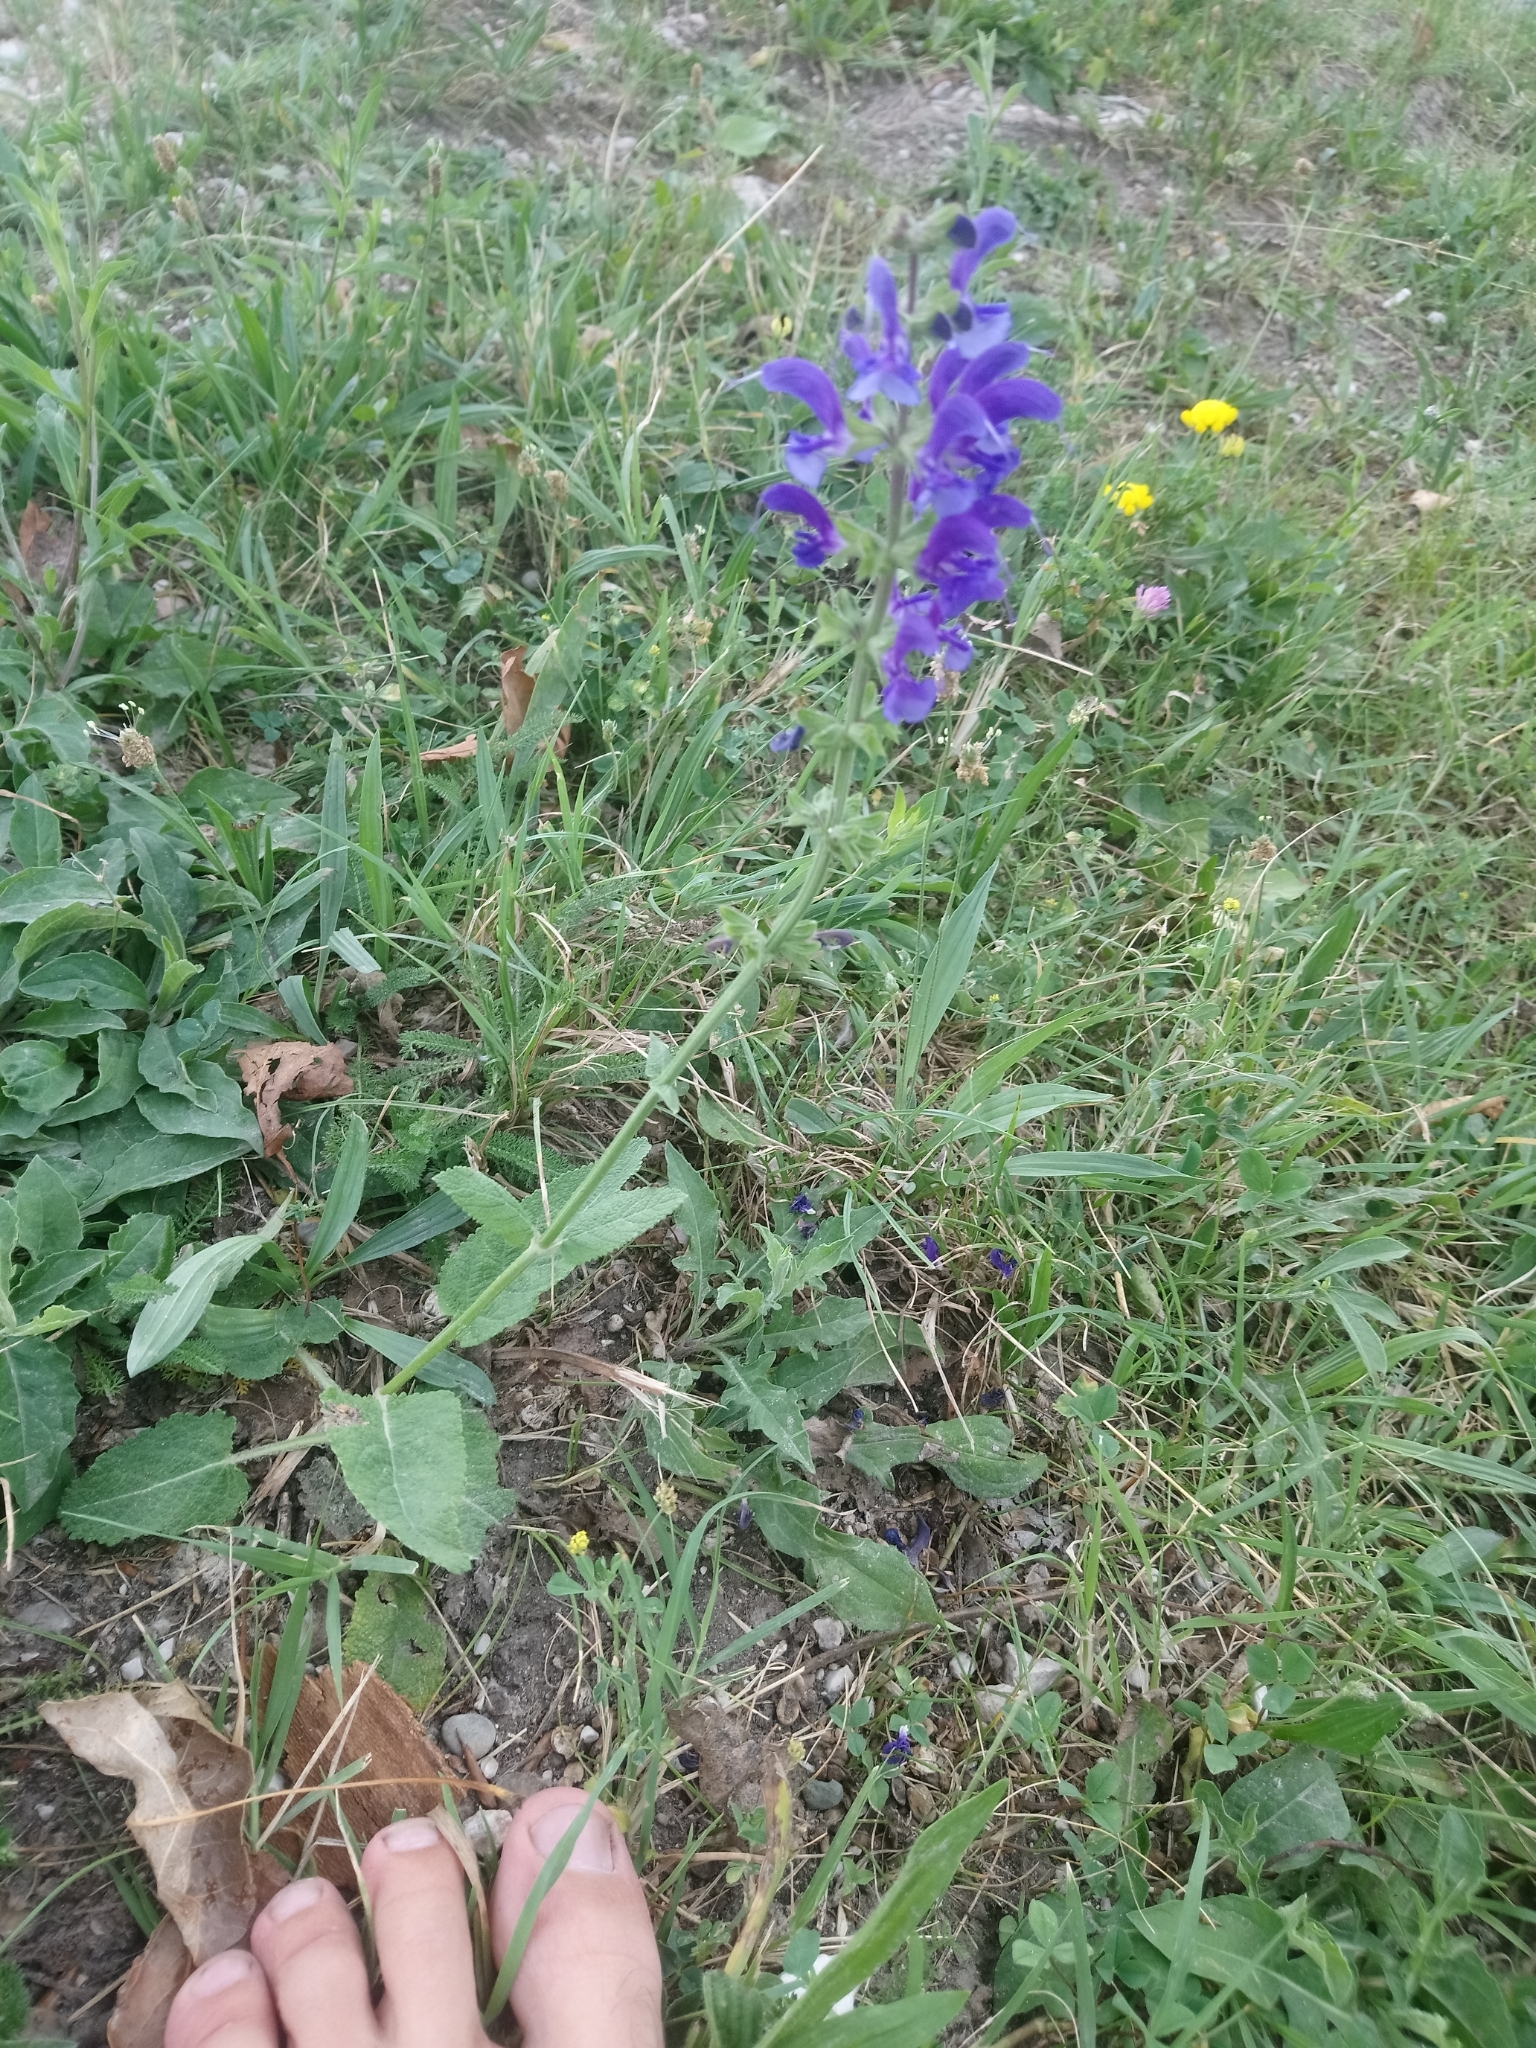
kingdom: Plantae
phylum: Tracheophyta
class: Magnoliopsida
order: Lamiales
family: Lamiaceae
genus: Salvia
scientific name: Salvia pratensis
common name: Meadow sage
